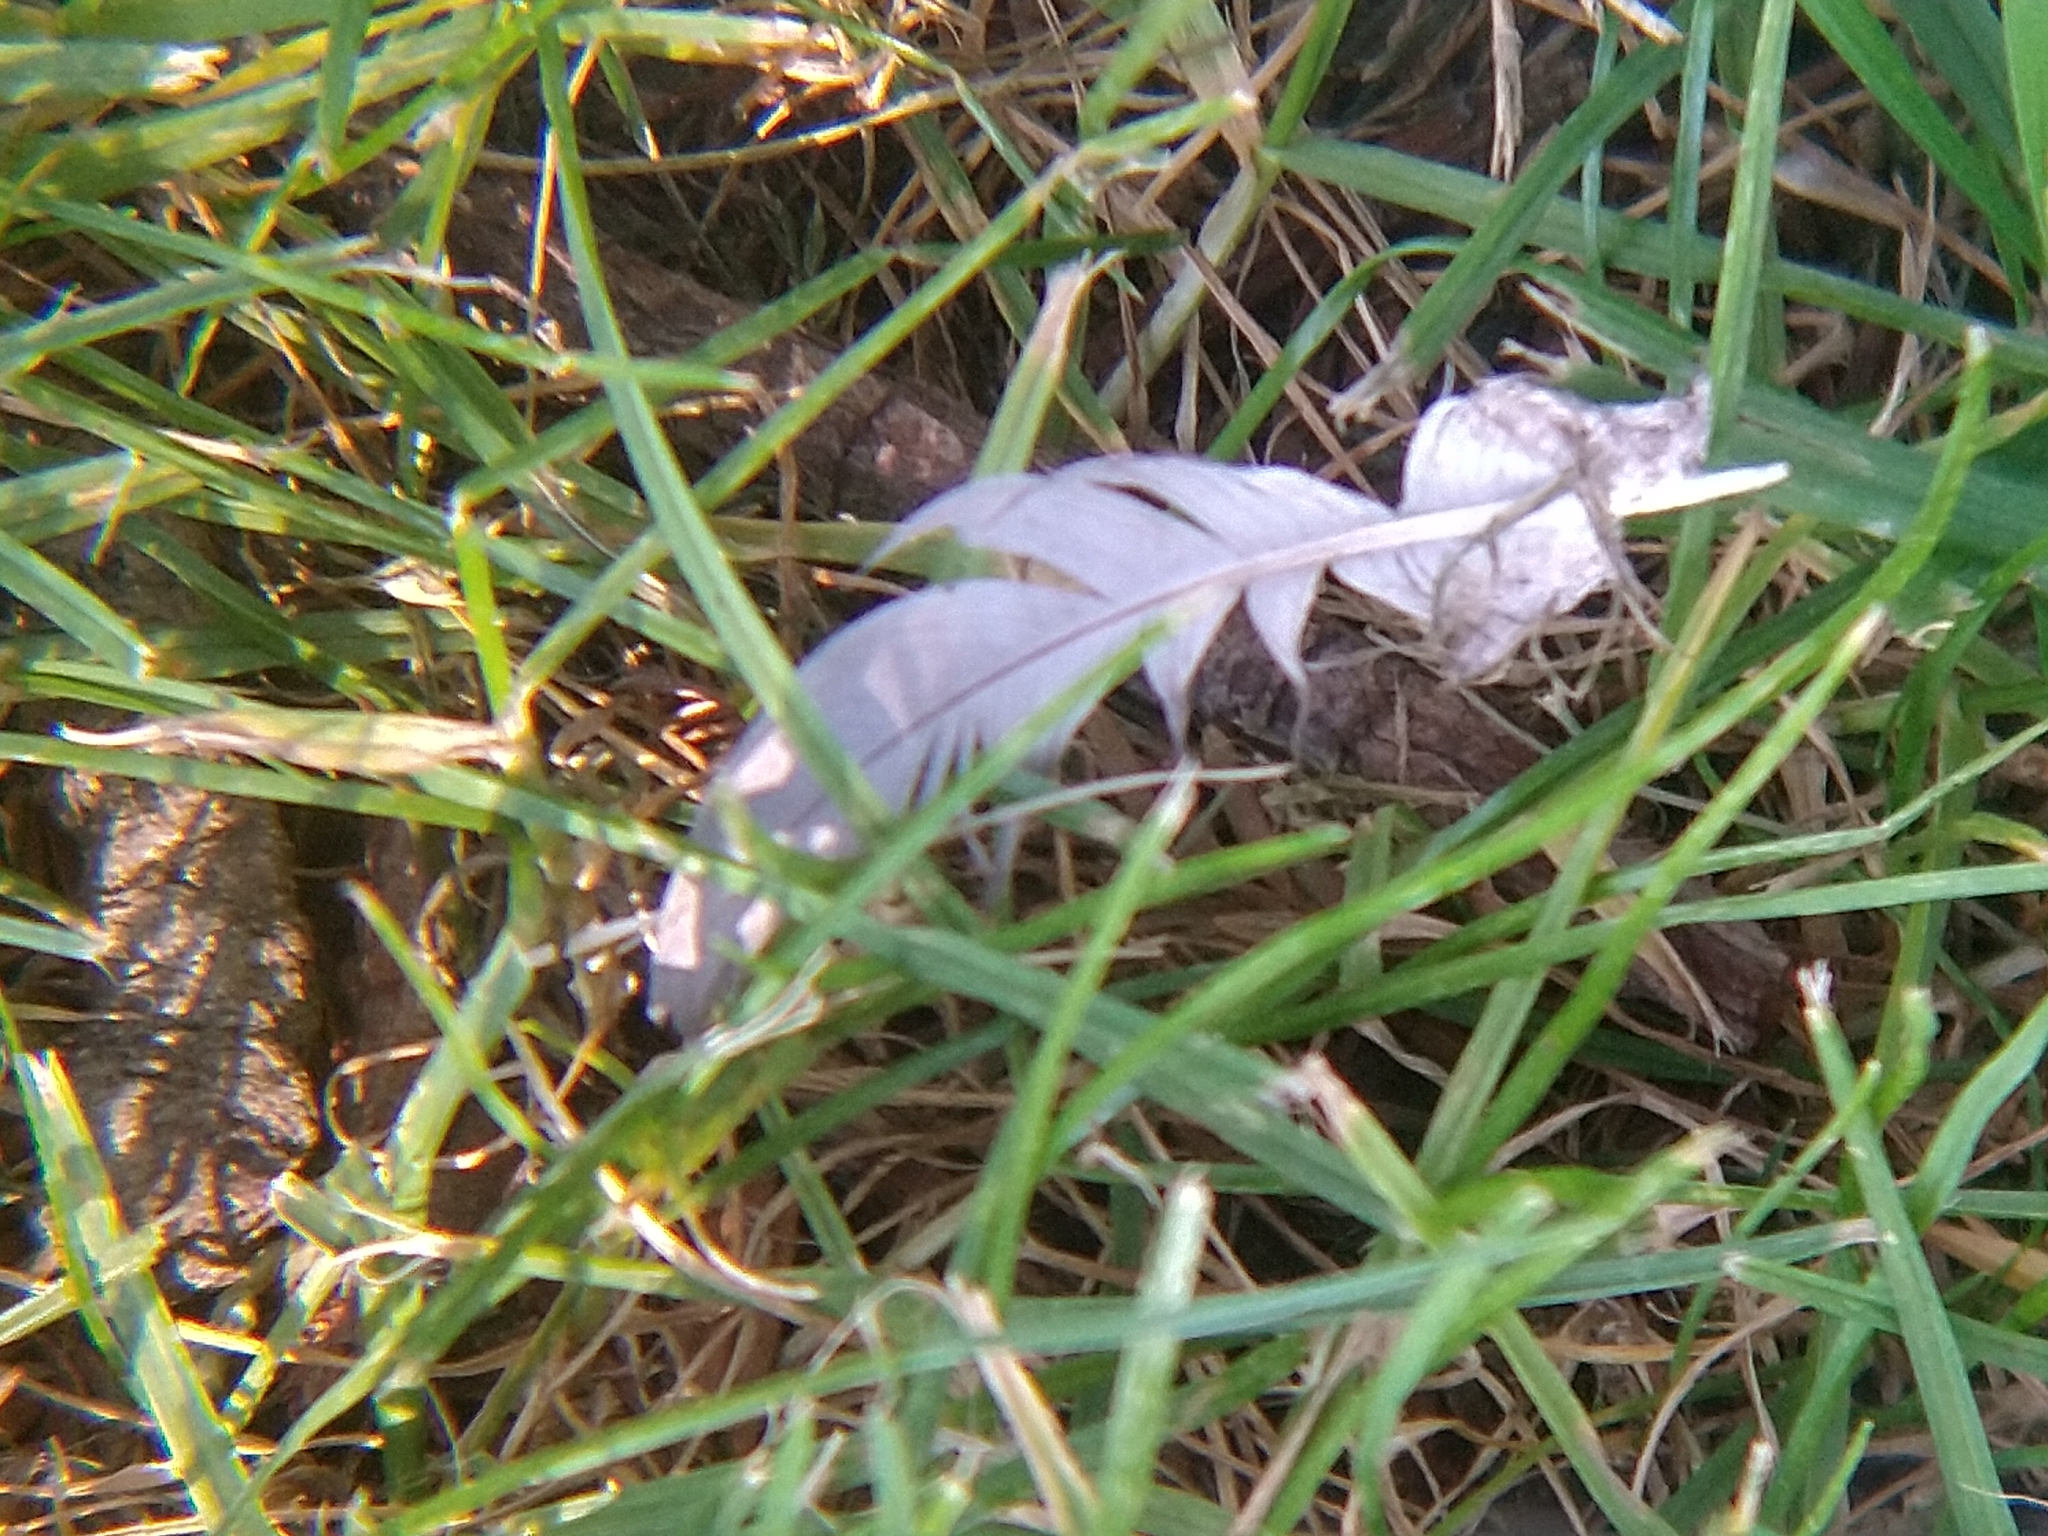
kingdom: Animalia
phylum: Chordata
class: Aves
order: Columbiformes
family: Columbidae
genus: Zenaida
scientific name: Zenaida macroura
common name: Mourning dove
